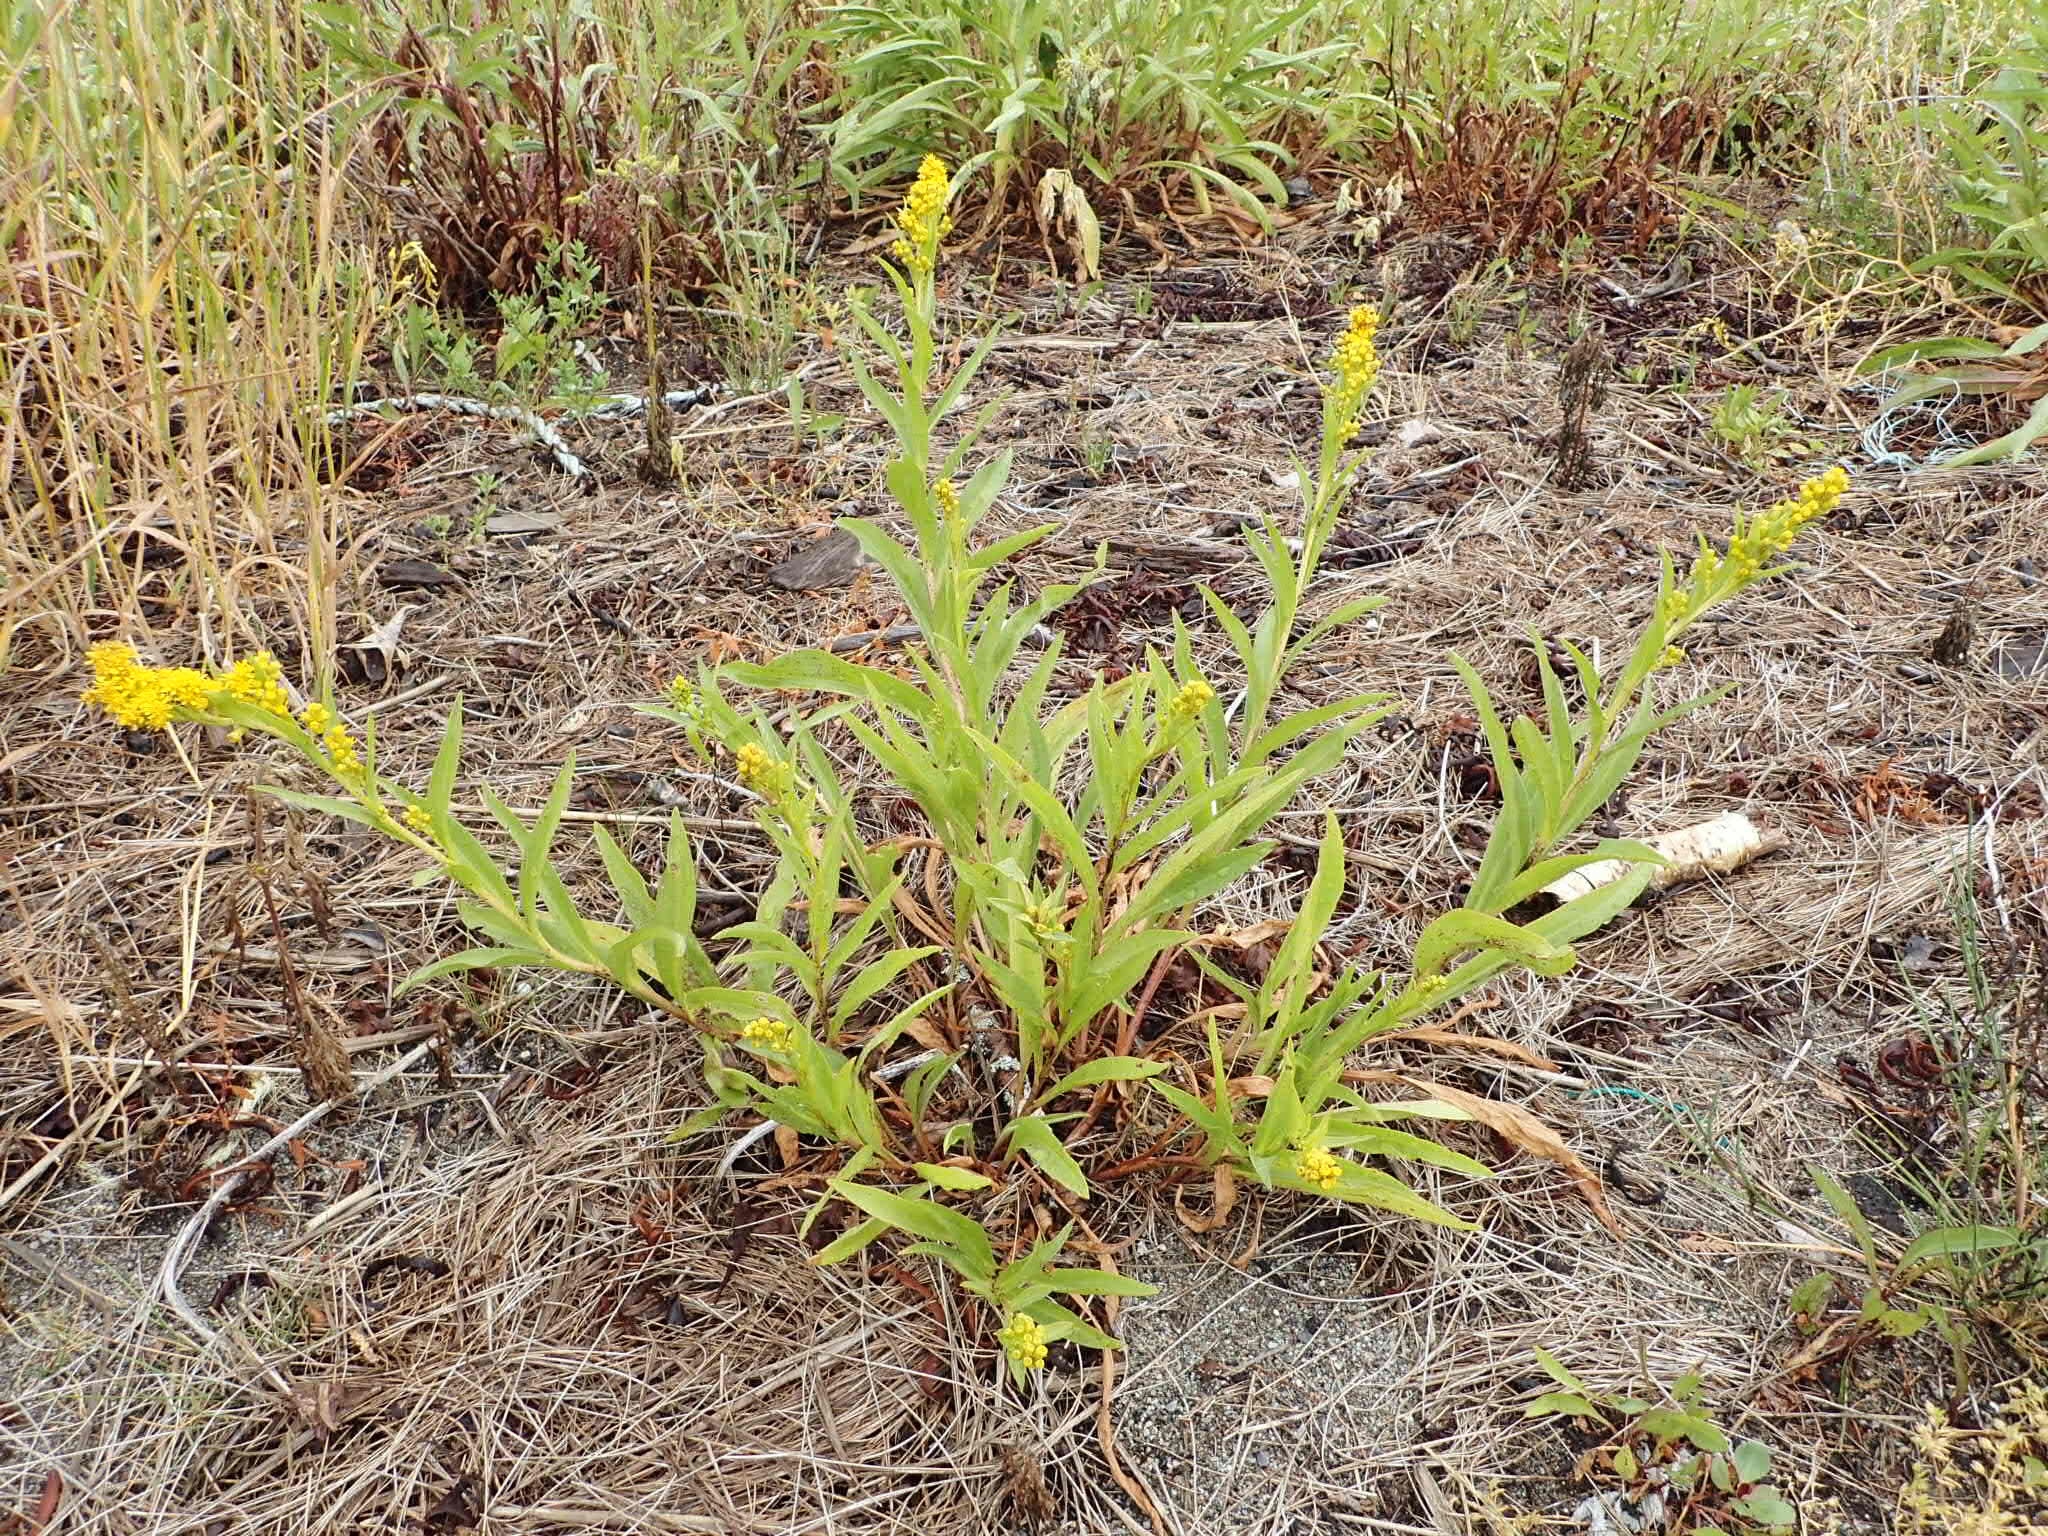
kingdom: Plantae
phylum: Tracheophyta
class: Magnoliopsida
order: Asterales
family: Asteraceae
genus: Solidago
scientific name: Solidago sempervirens
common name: Salt-marsh goldenrod
